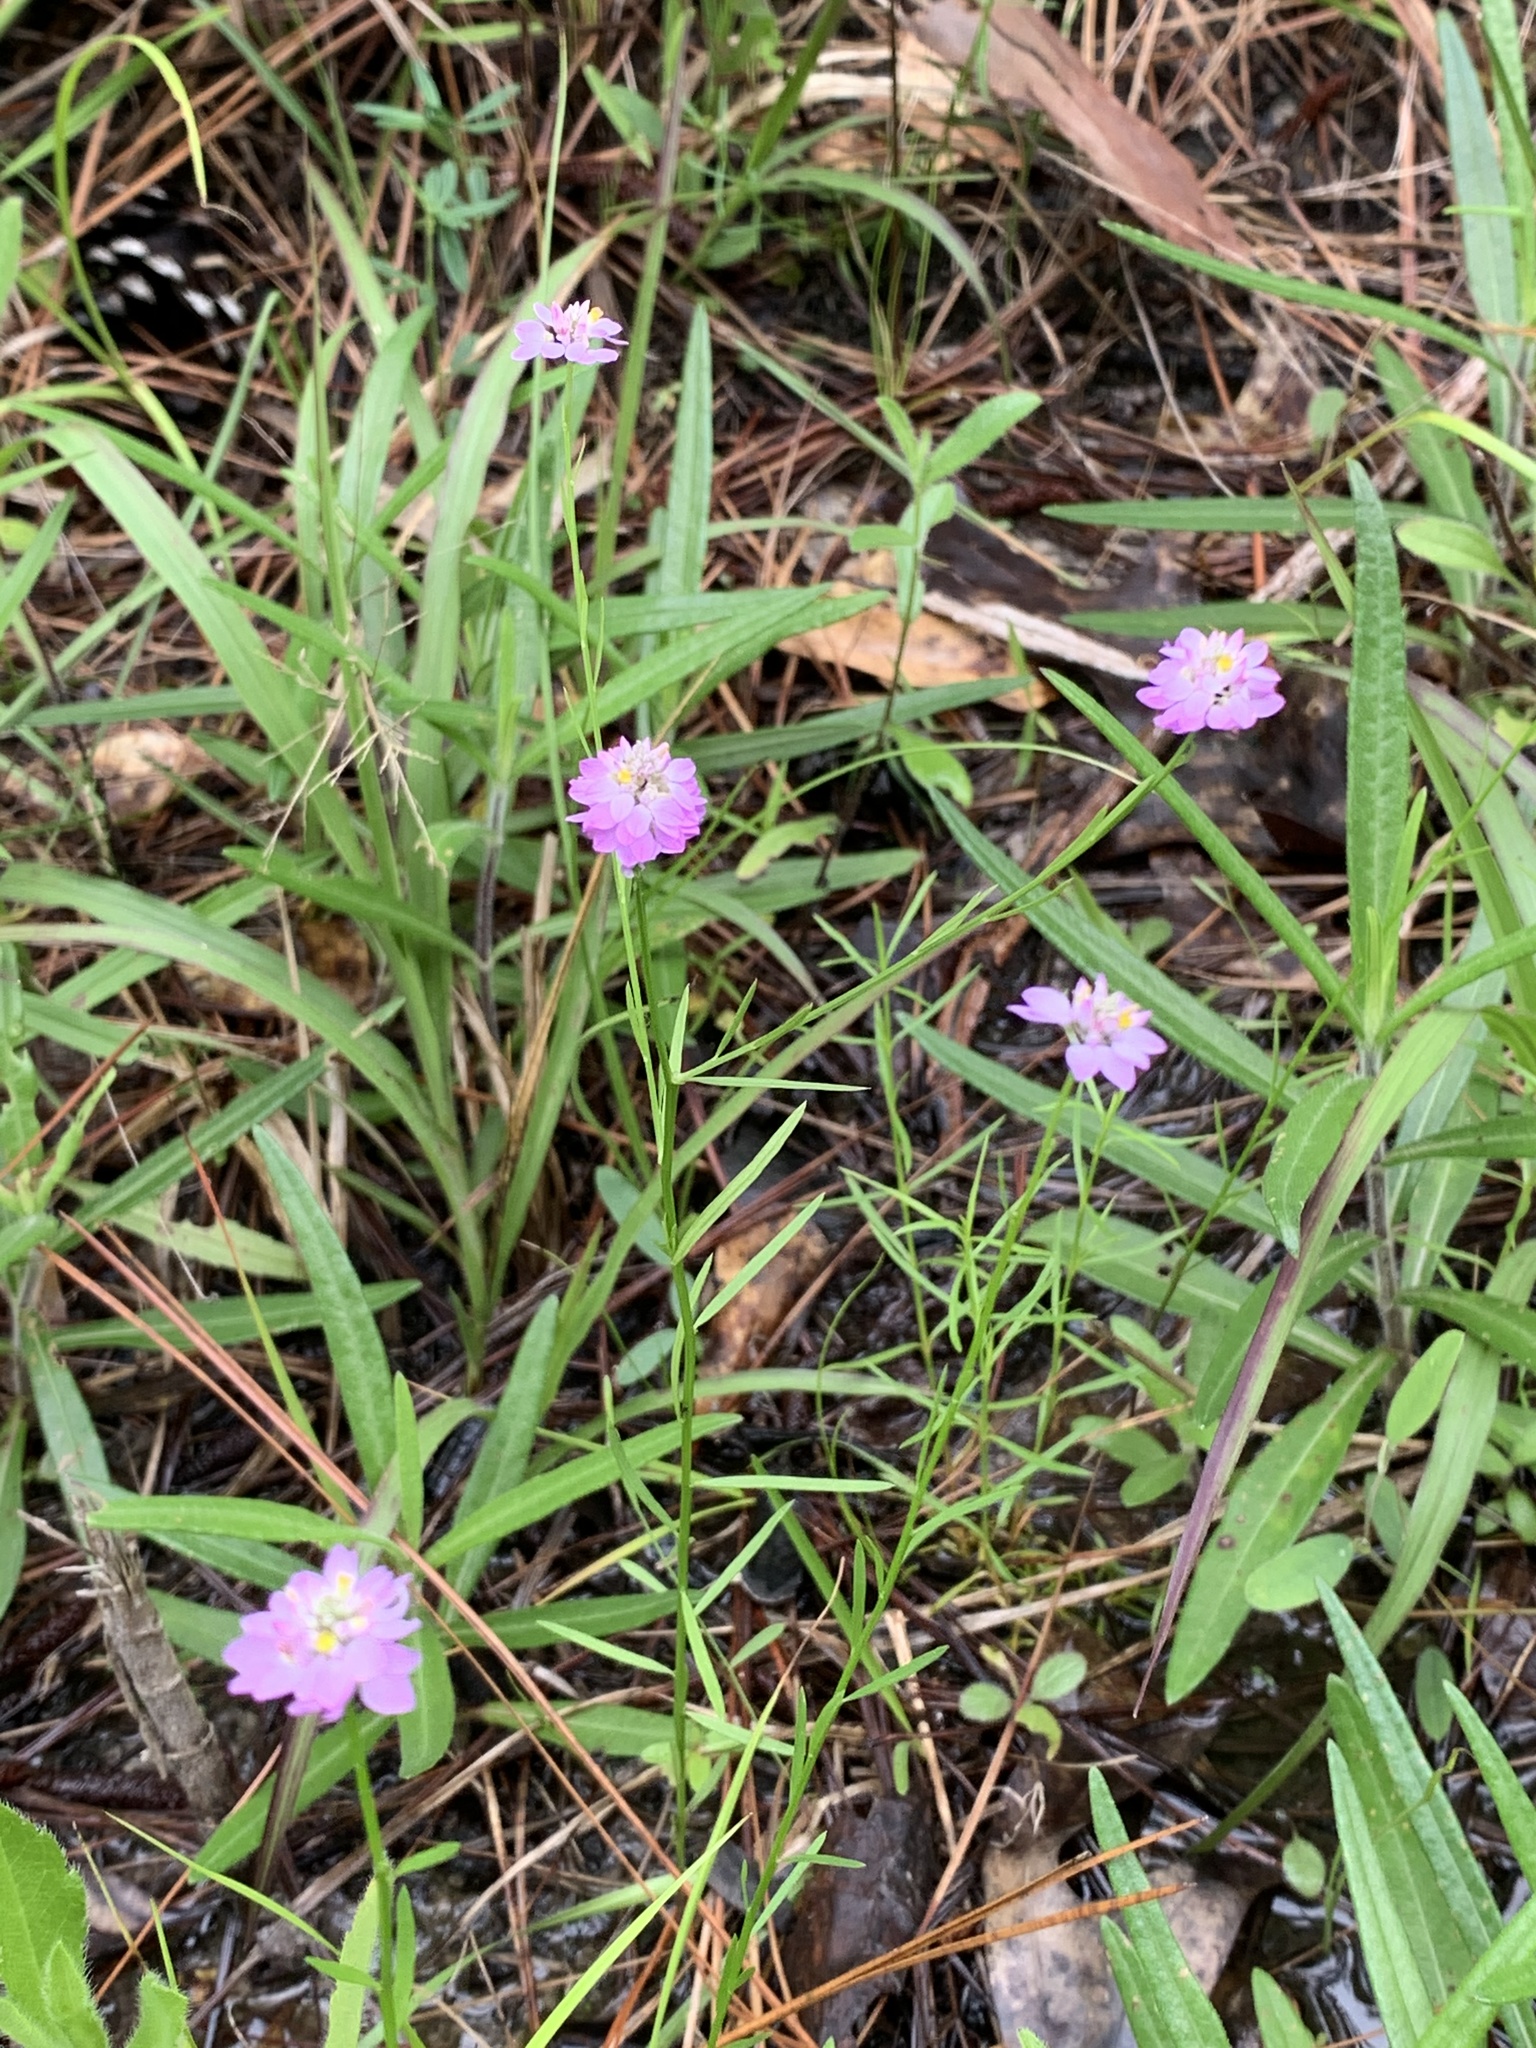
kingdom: Plantae
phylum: Tracheophyta
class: Magnoliopsida
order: Fabales
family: Polygalaceae
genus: Polygala
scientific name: Polygala mariana
